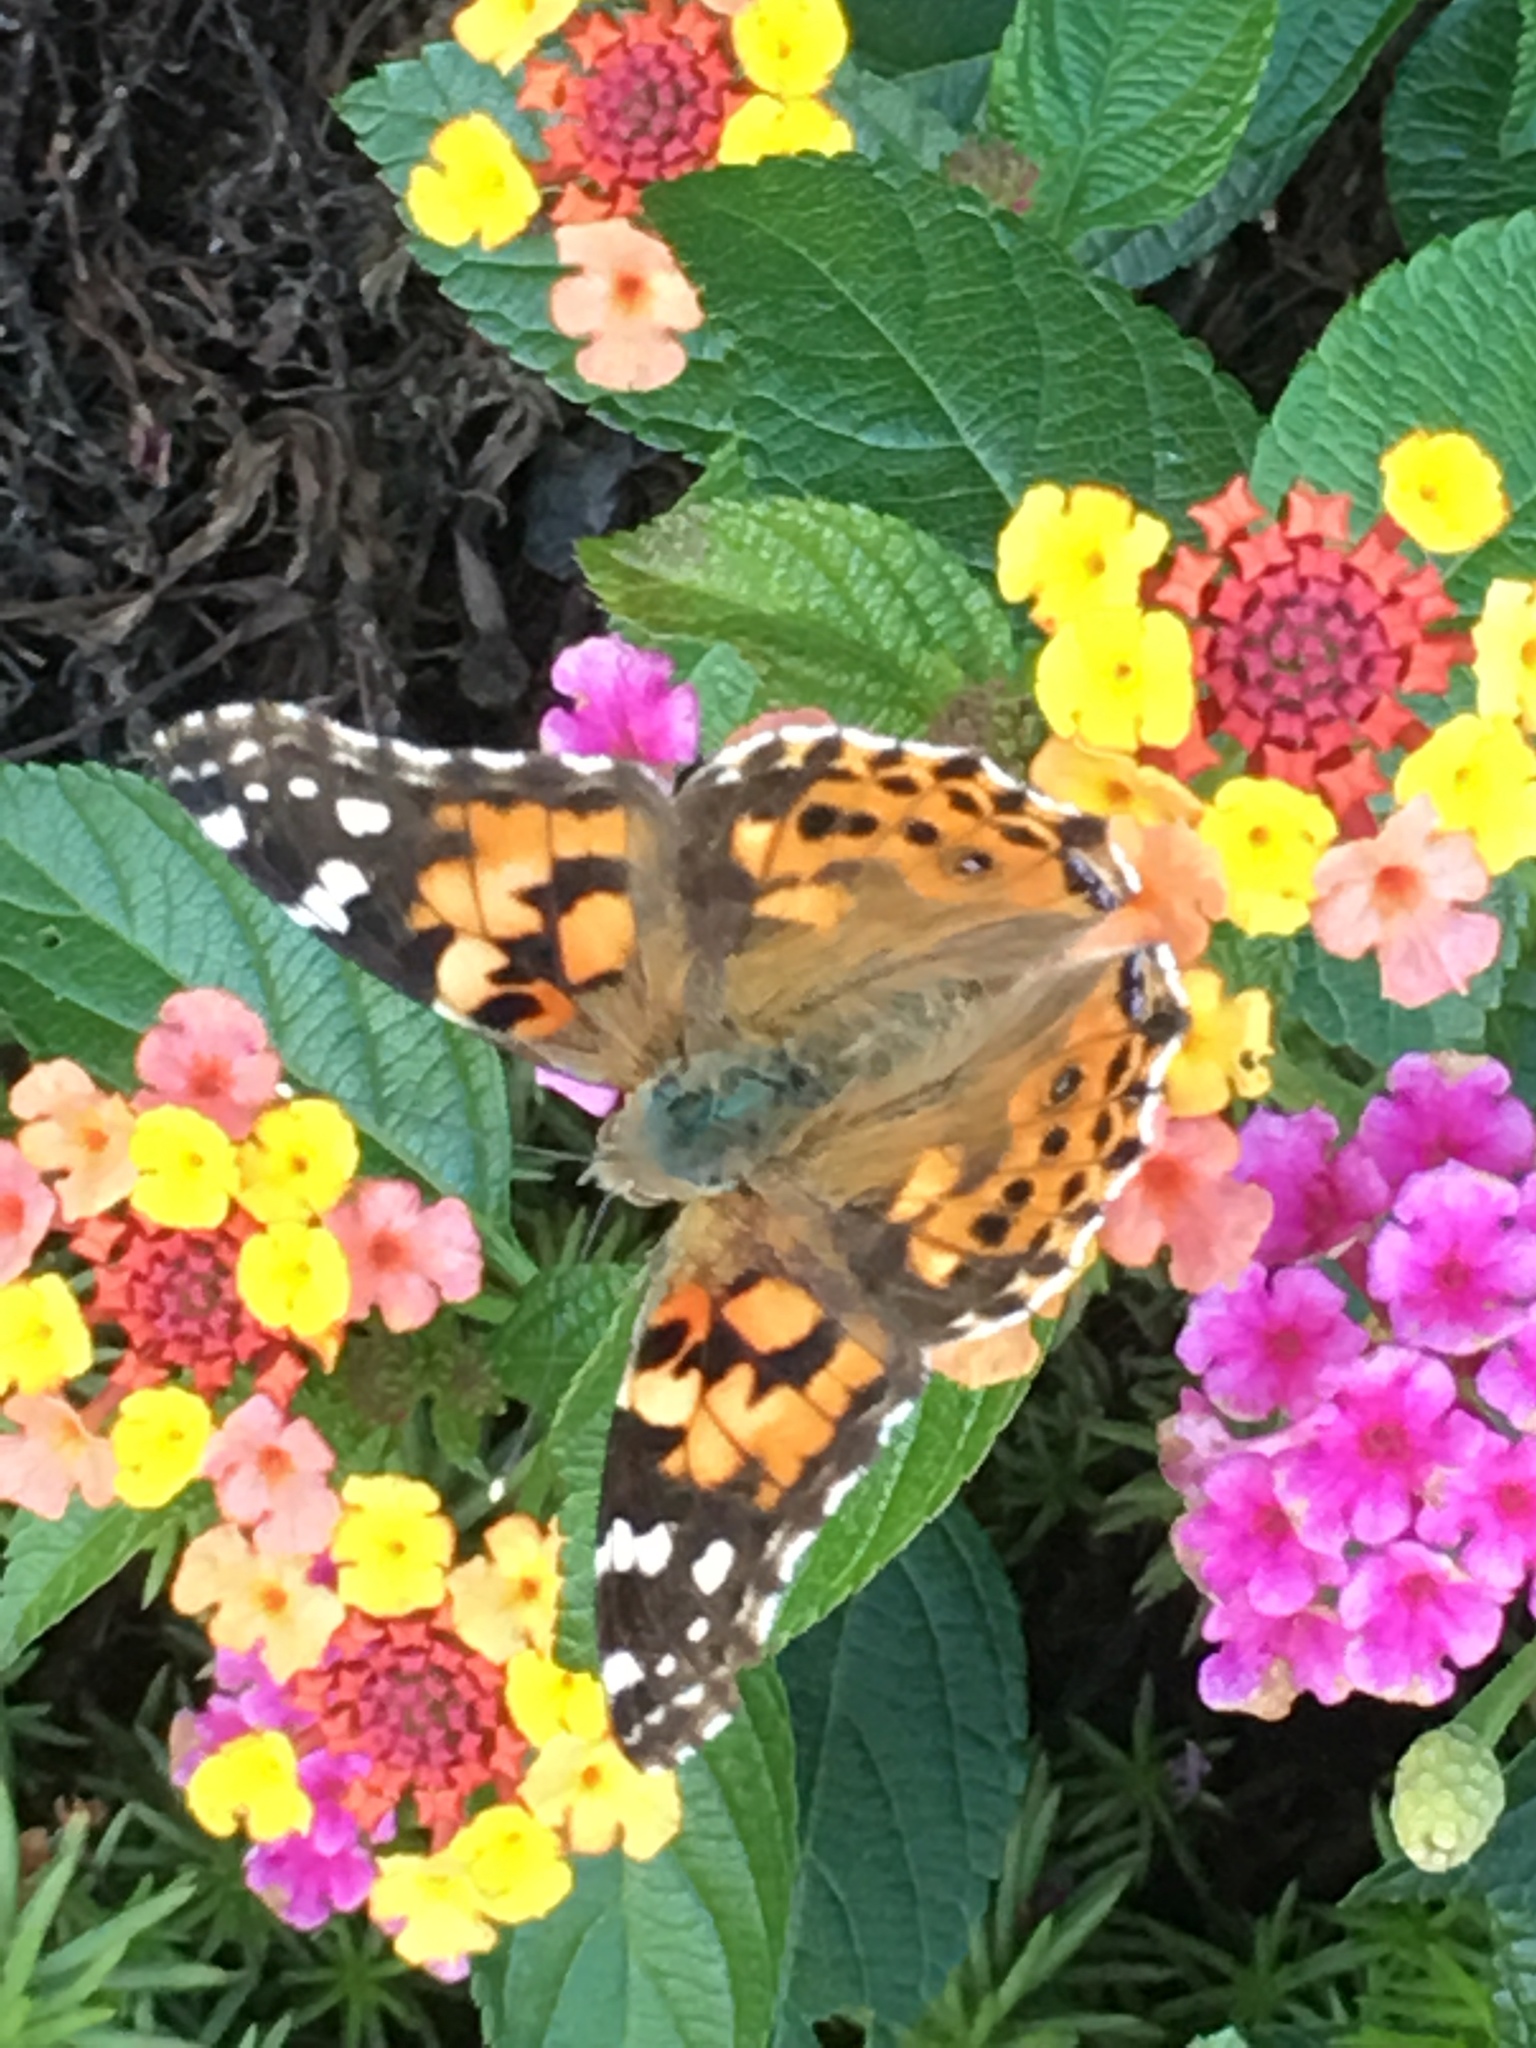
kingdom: Animalia
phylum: Arthropoda
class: Insecta
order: Lepidoptera
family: Nymphalidae
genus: Vanessa
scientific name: Vanessa cardui
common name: Painted lady
